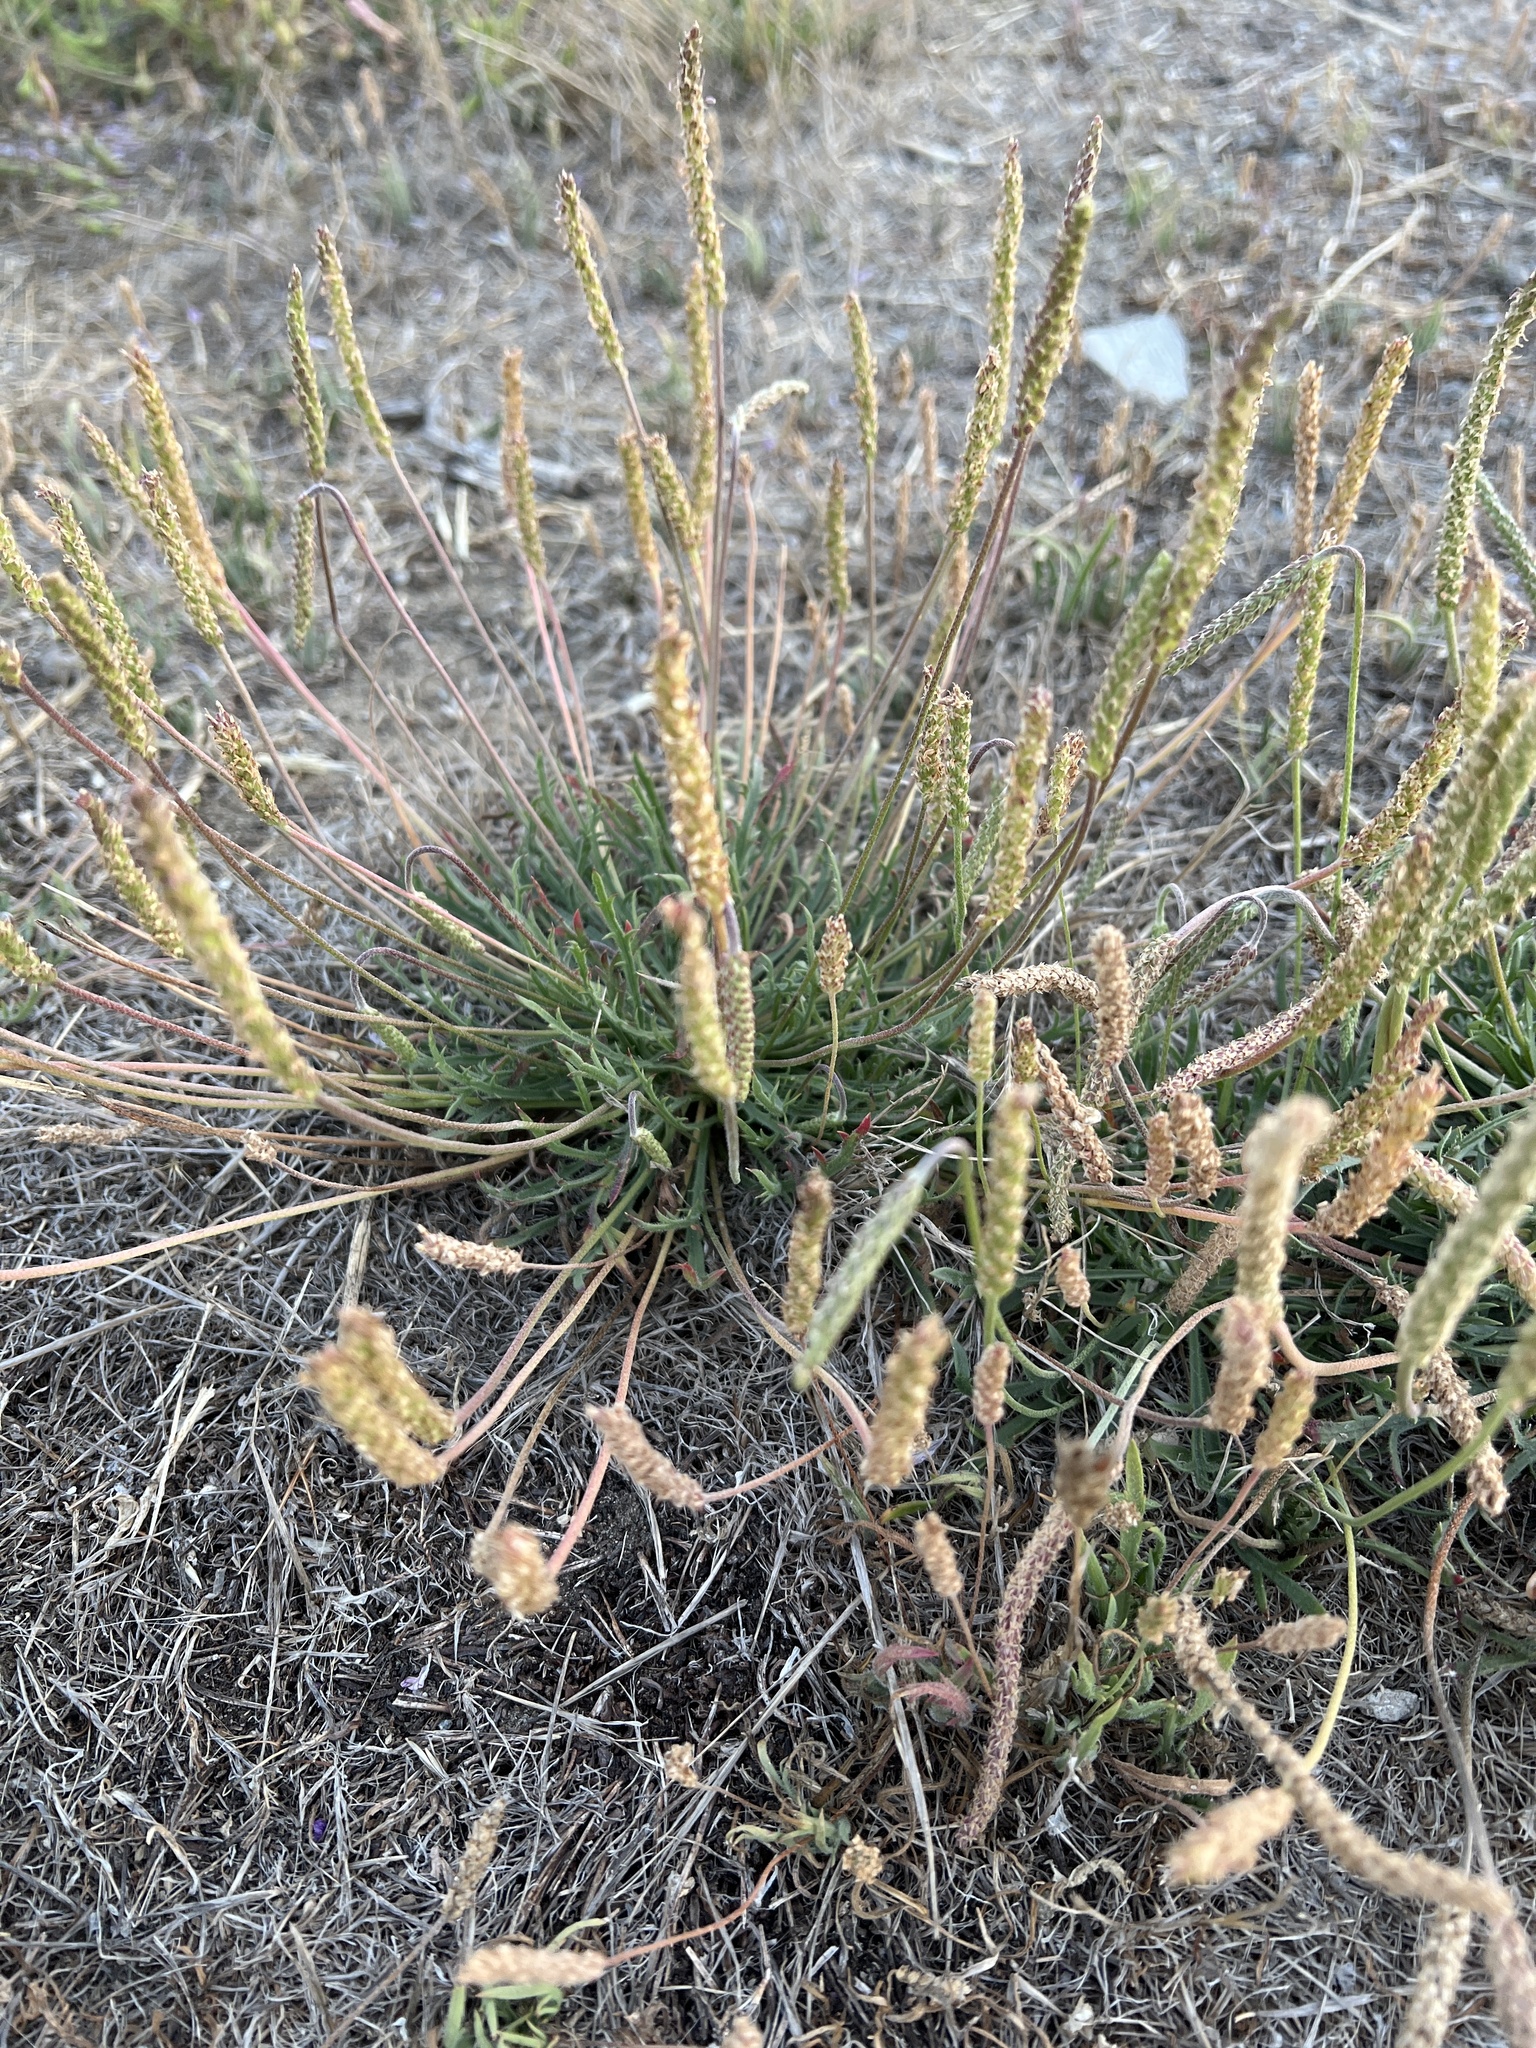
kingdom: Plantae
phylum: Tracheophyta
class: Magnoliopsida
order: Lamiales
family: Plantaginaceae
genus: Plantago
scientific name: Plantago coronopus
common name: Buck's-horn plantain
